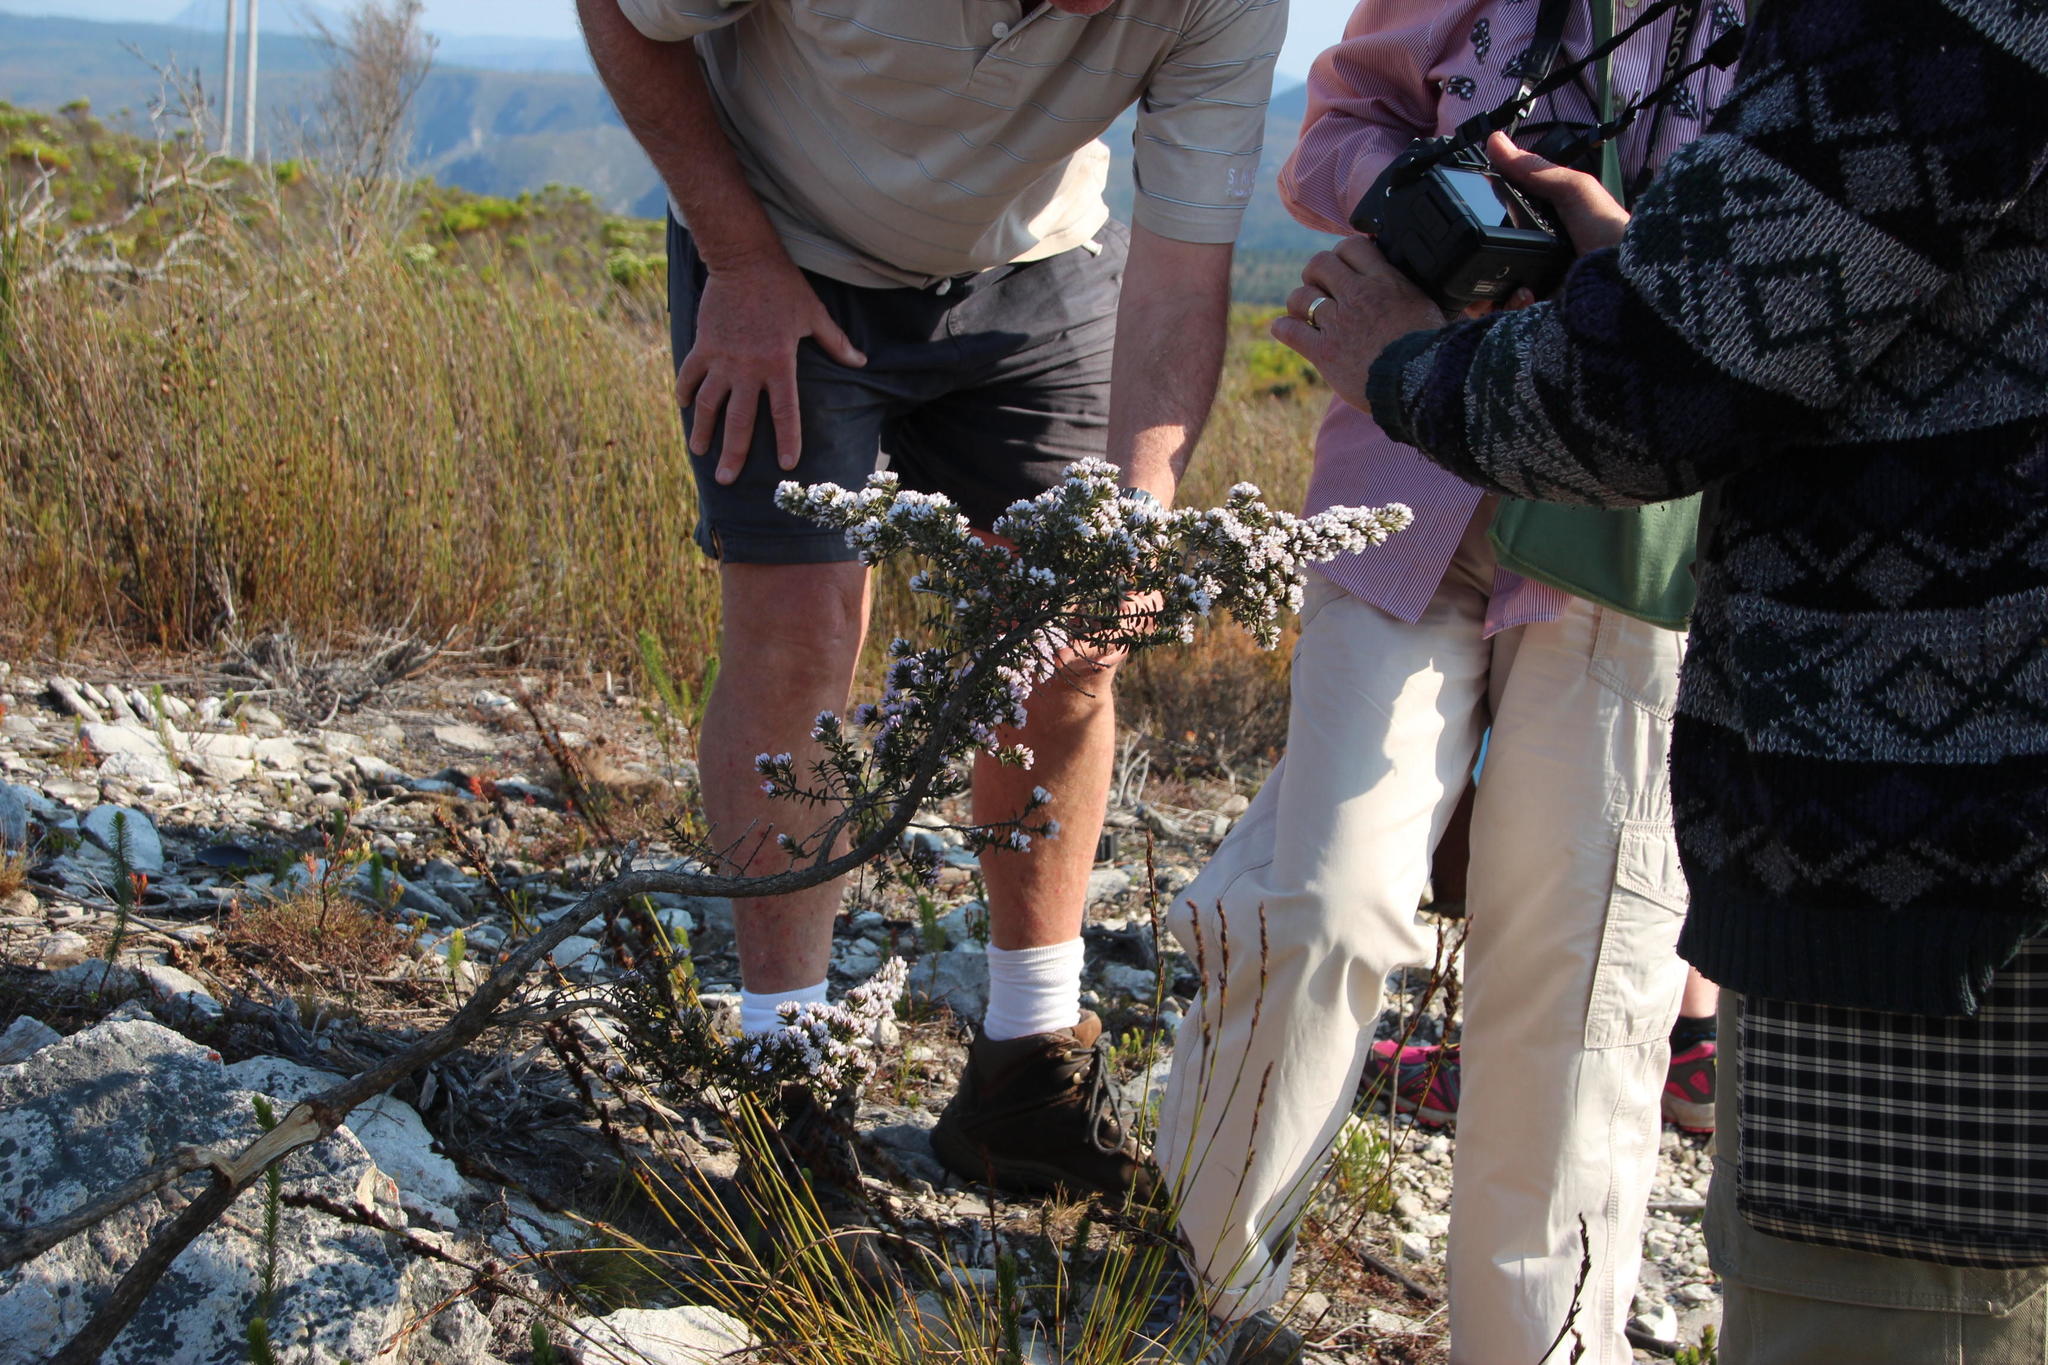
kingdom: Plantae
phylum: Tracheophyta
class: Magnoliopsida
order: Fabales
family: Fabaceae
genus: Amphithalea
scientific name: Amphithalea speciosa
